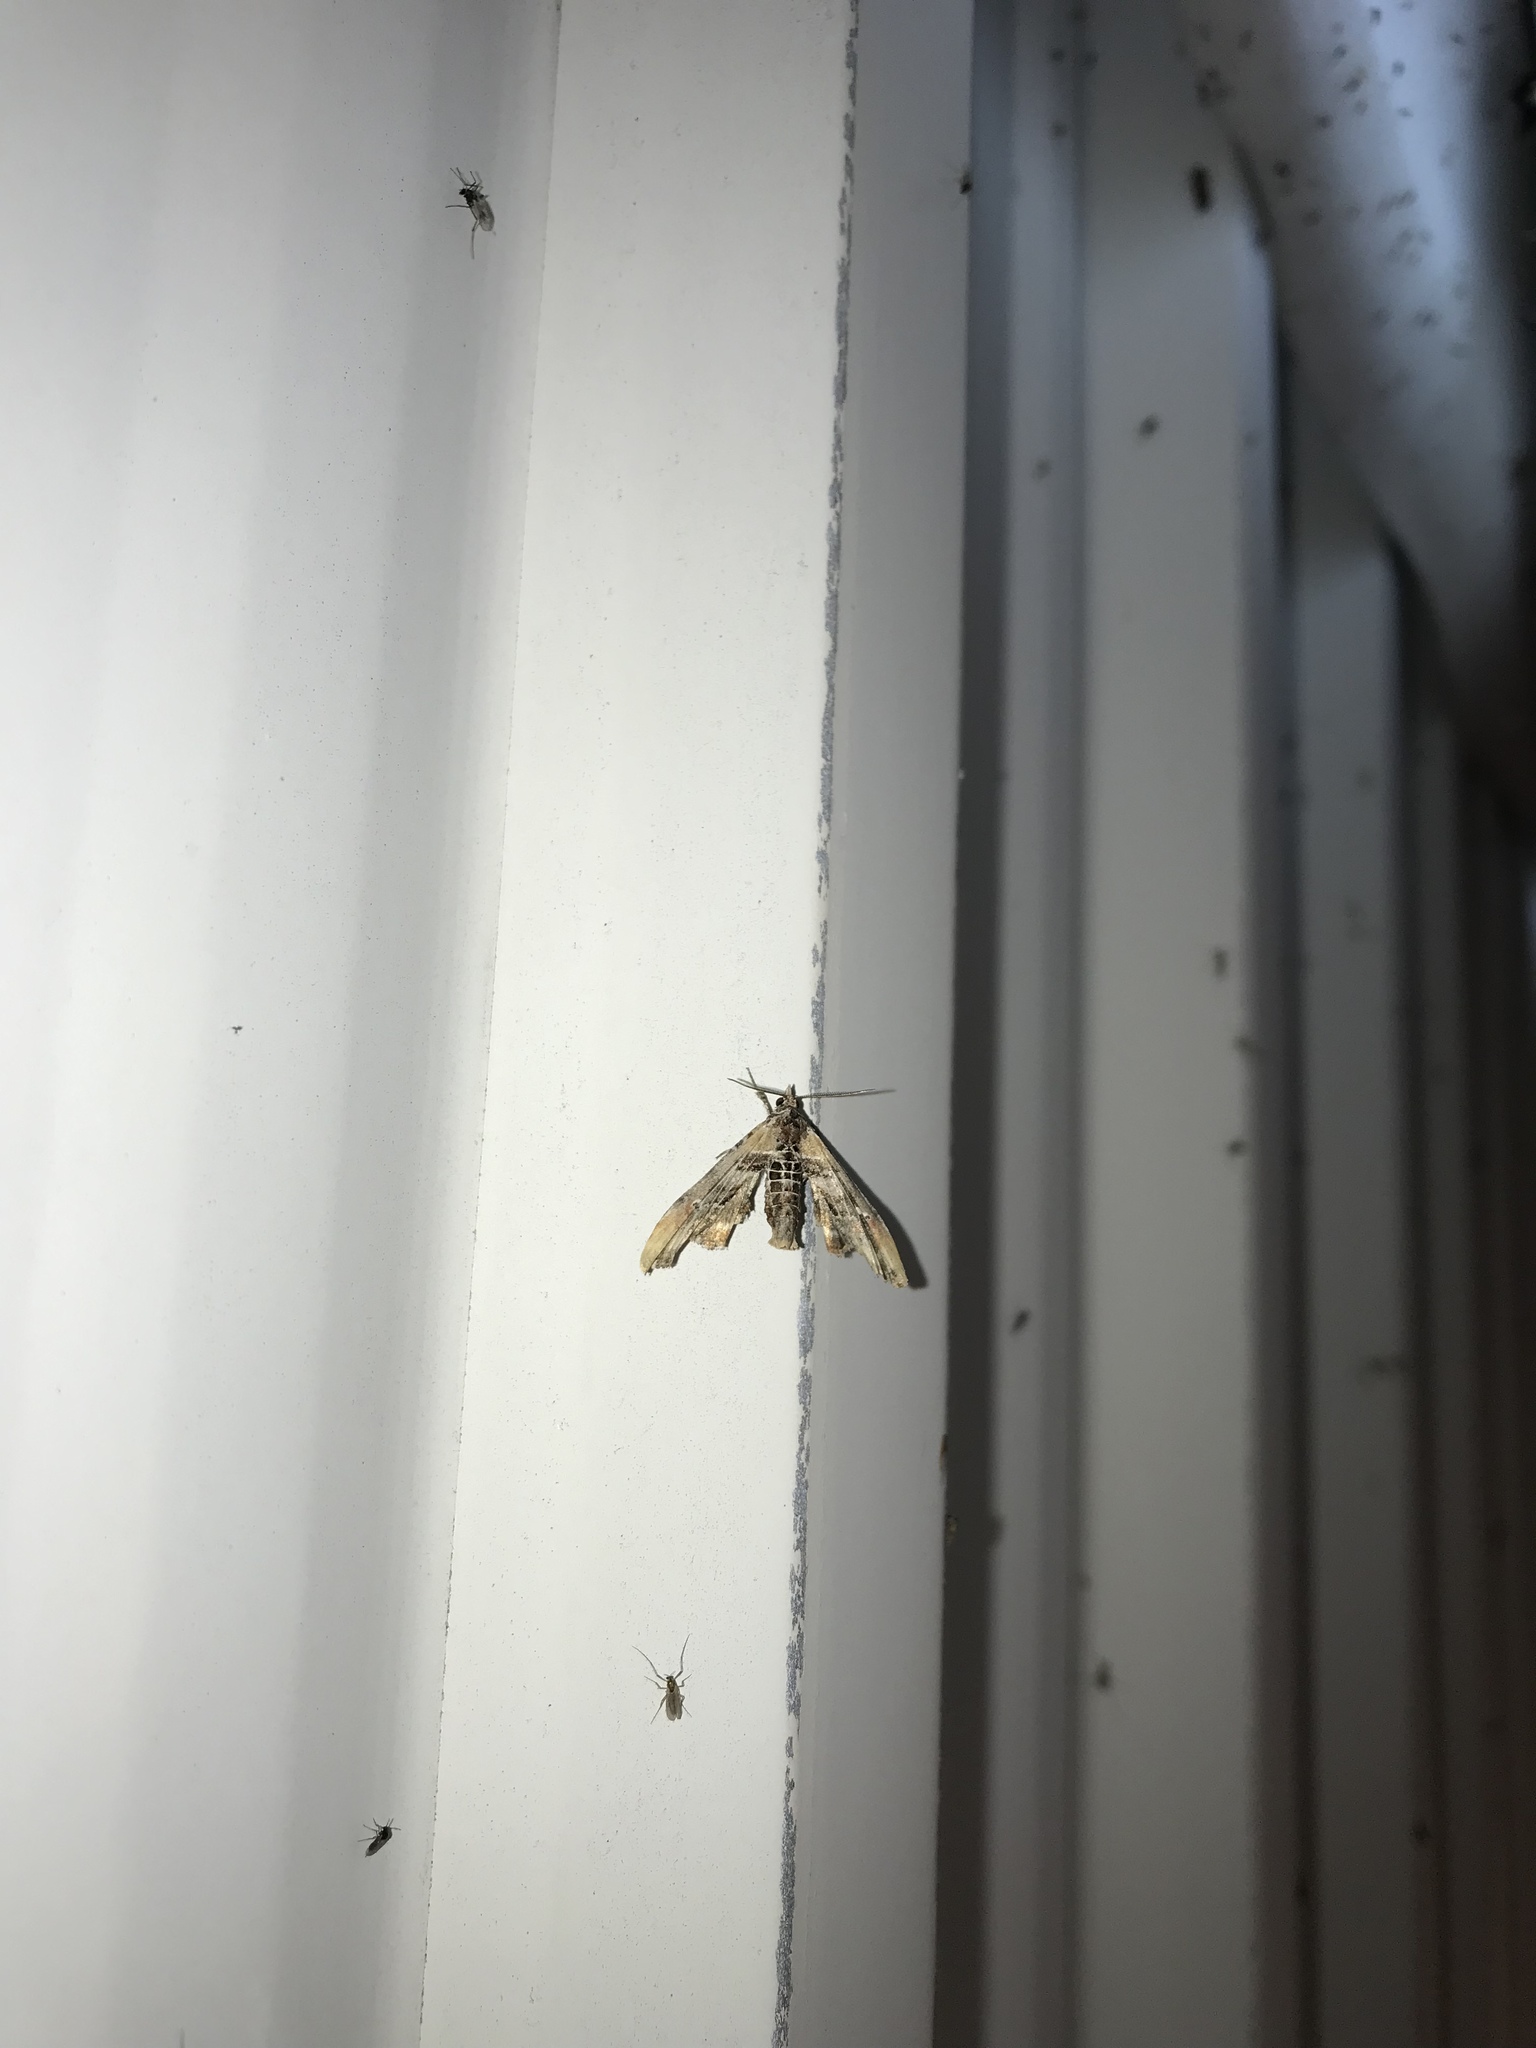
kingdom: Animalia
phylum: Arthropoda
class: Insecta
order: Lepidoptera
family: Euteliidae
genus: Marathyssa
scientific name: Marathyssa basalis
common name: Light marathyssa moth
